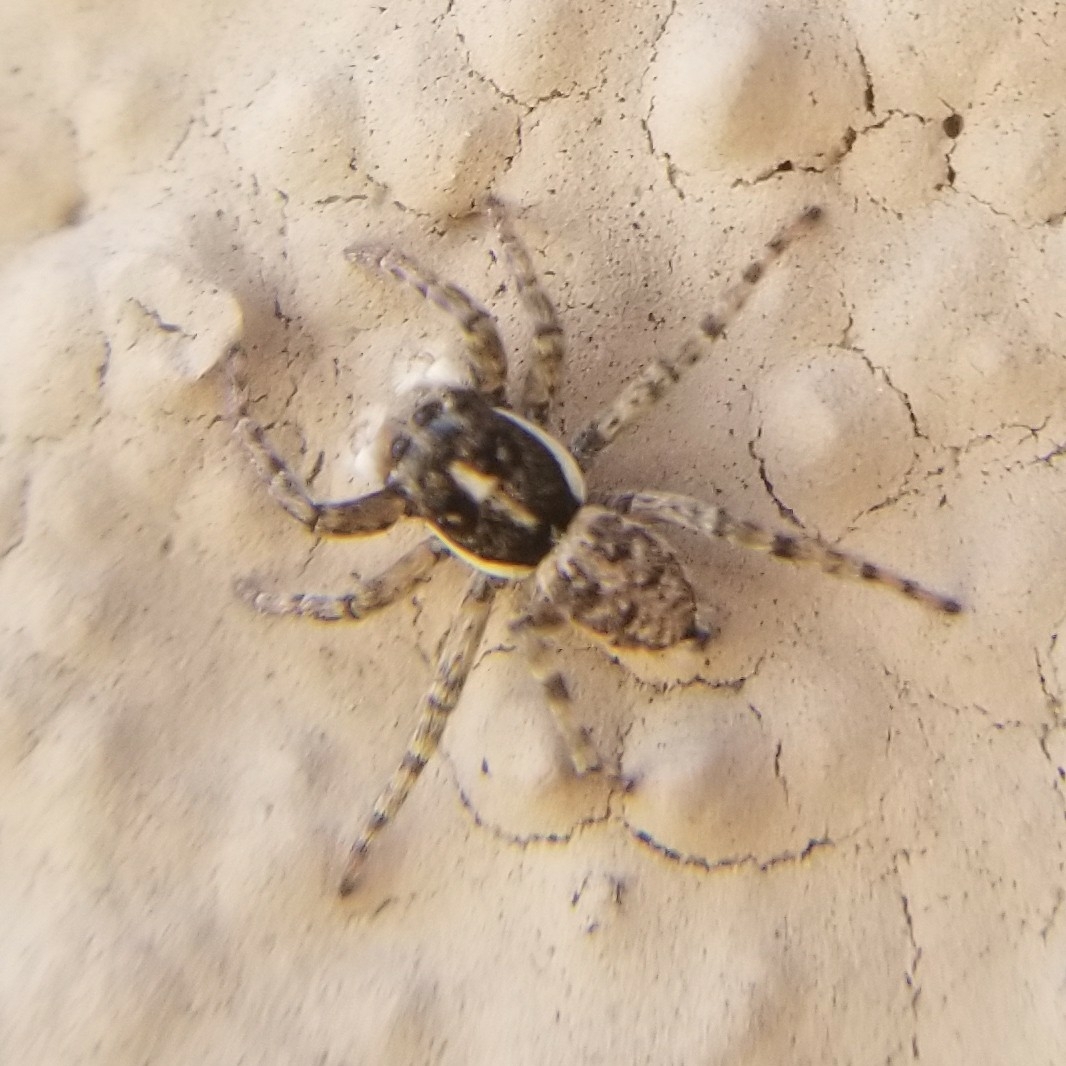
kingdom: Animalia
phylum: Arthropoda
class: Arachnida
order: Araneae
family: Salticidae
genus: Menemerus
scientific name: Menemerus semilimbatus
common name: Jumping spider
